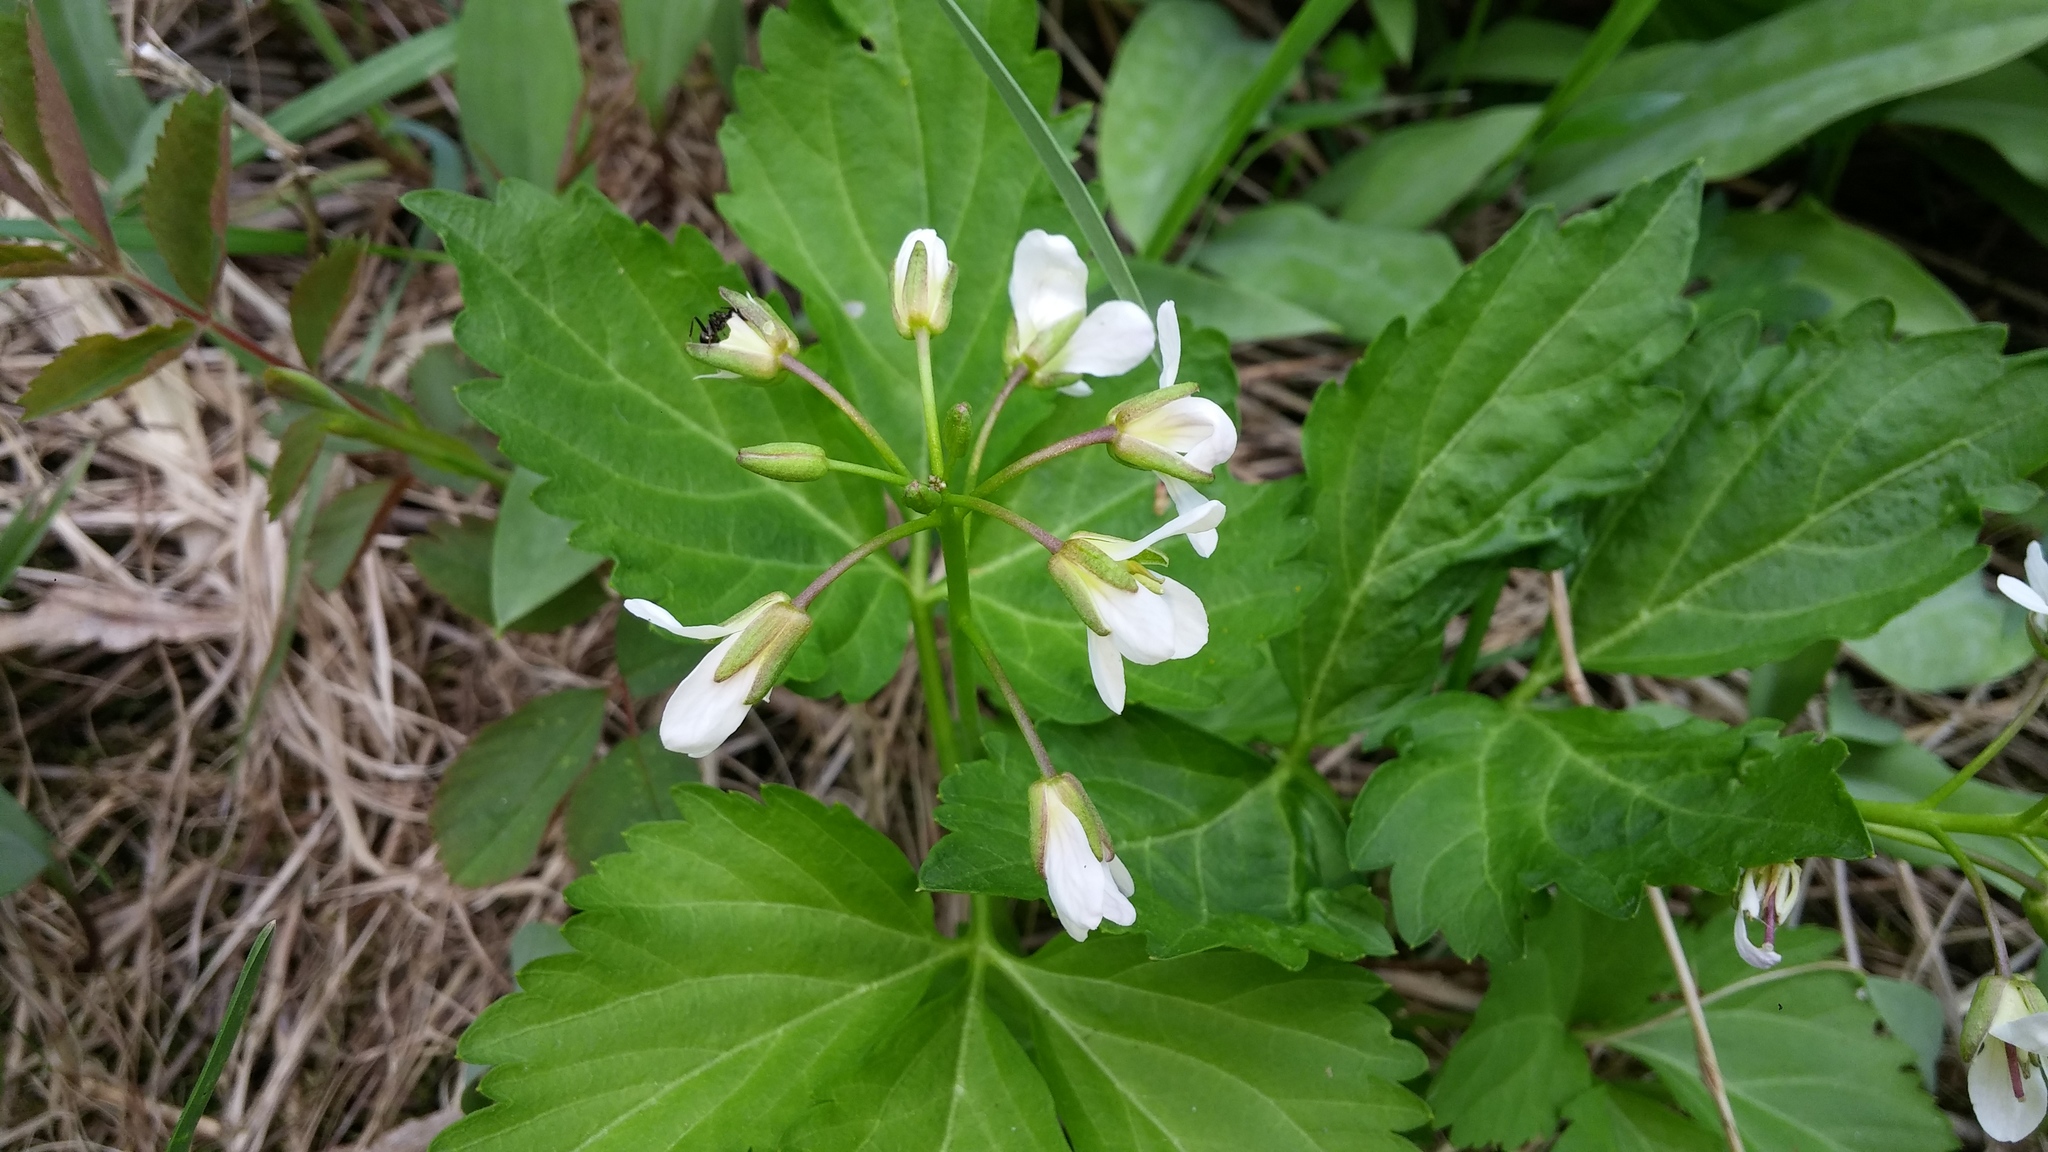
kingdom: Plantae
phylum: Tracheophyta
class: Magnoliopsida
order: Brassicales
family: Brassicaceae
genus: Cardamine
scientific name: Cardamine diphylla
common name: Broad-leaved toothwort
